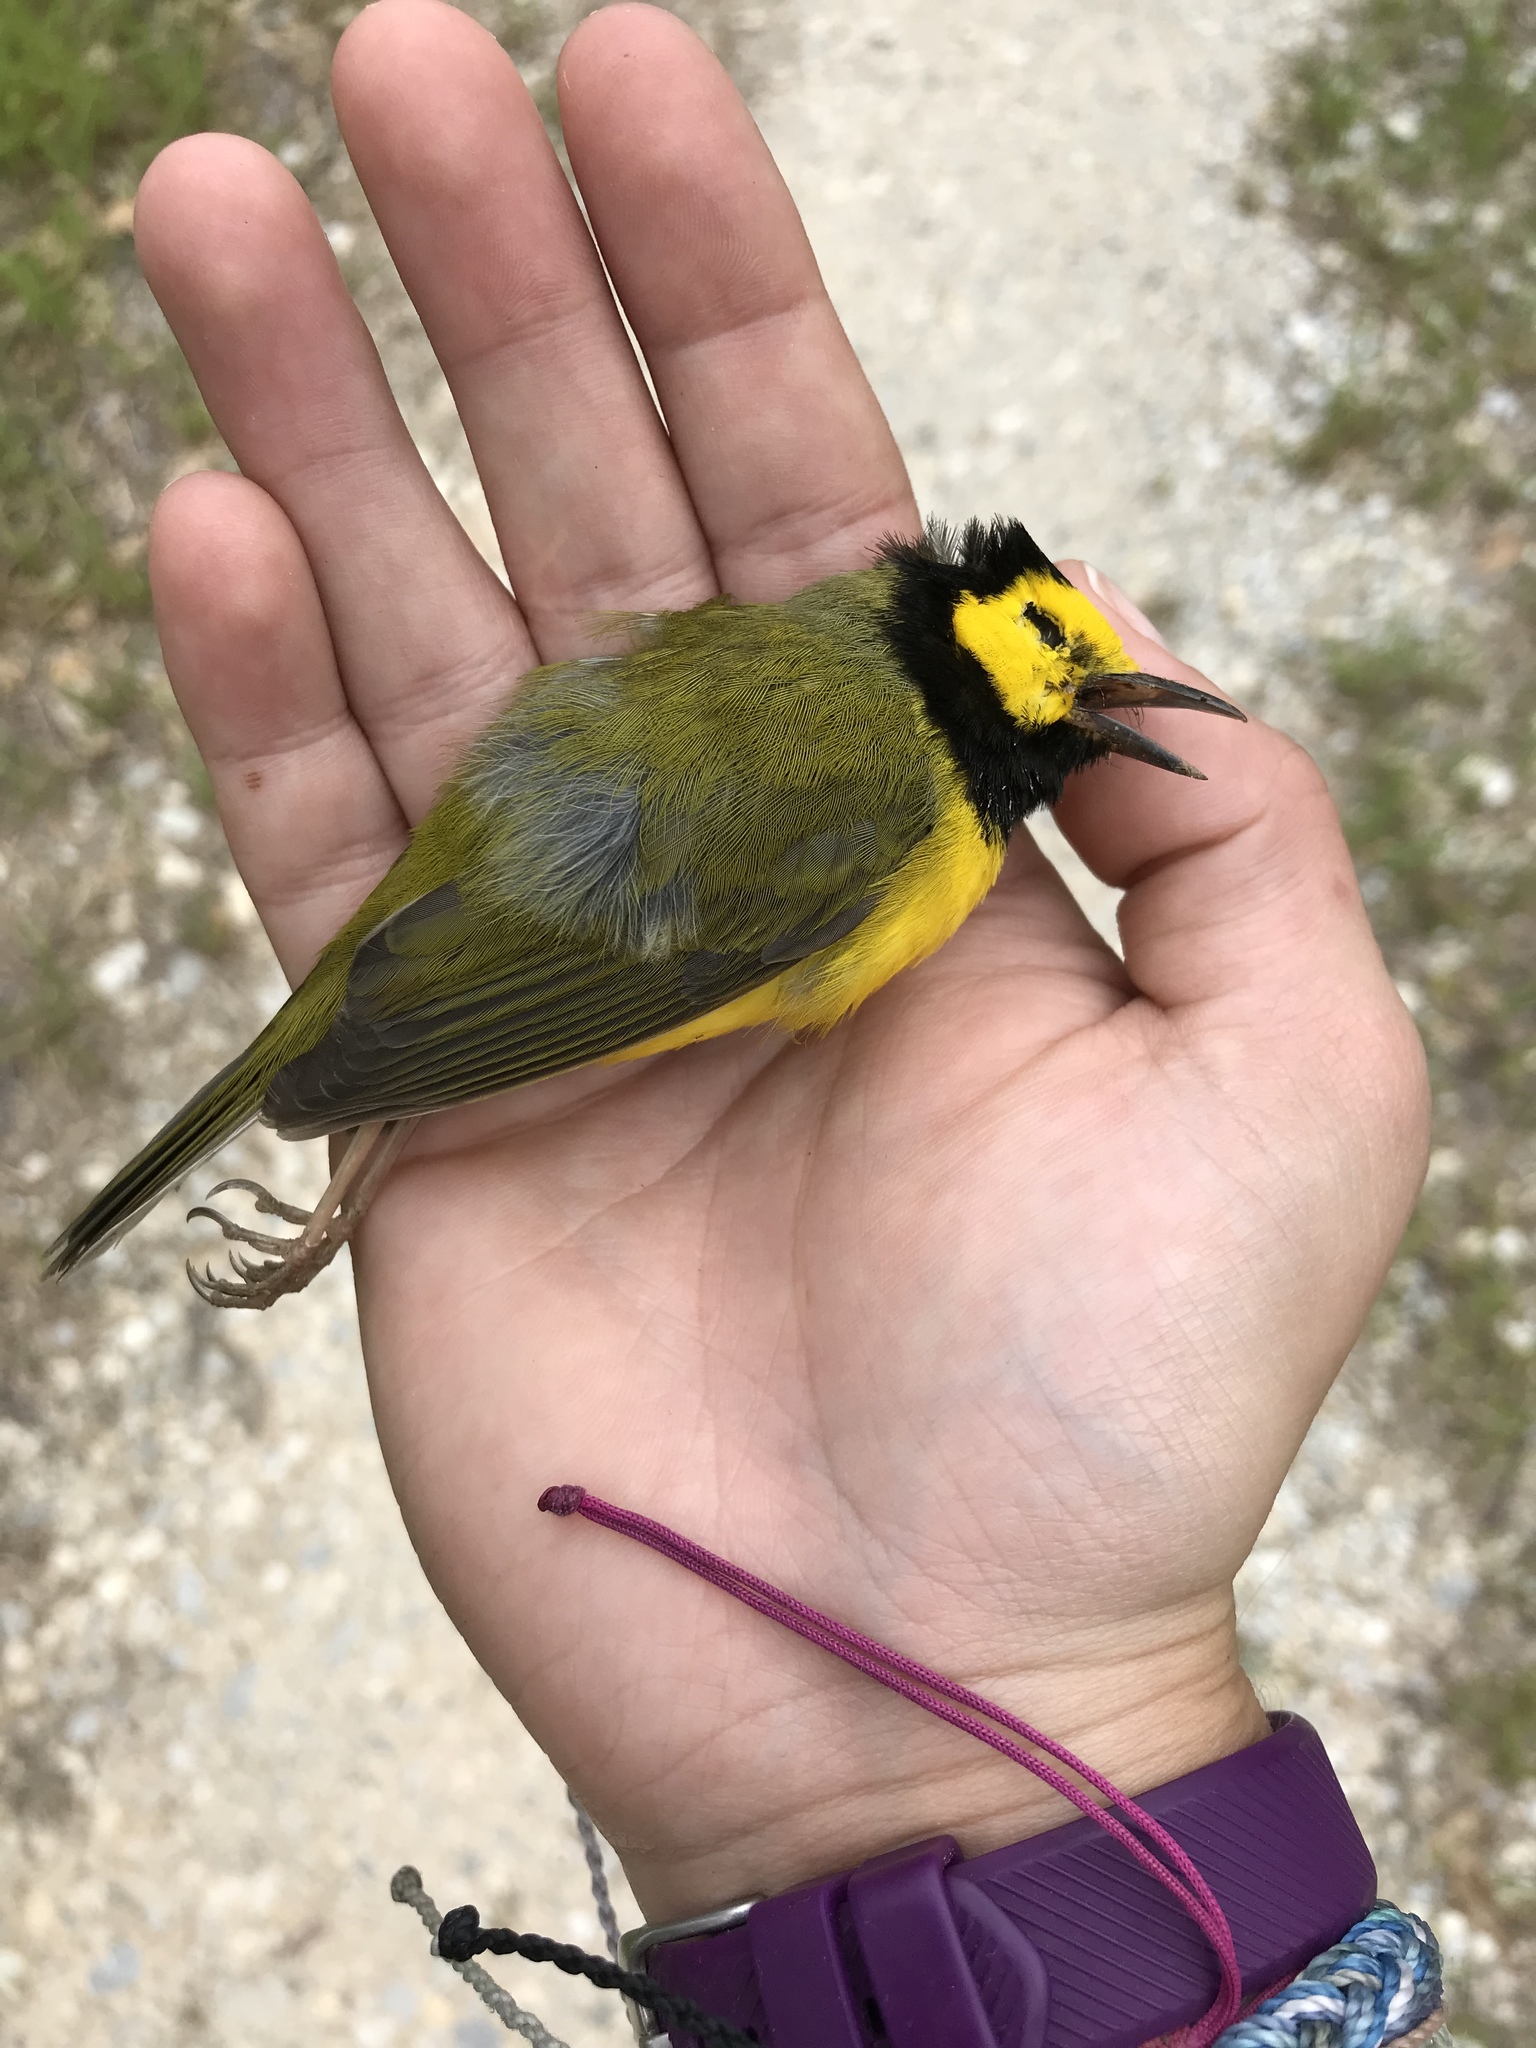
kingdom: Animalia
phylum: Chordata
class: Aves
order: Passeriformes
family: Parulidae
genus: Setophaga
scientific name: Setophaga citrina
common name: Hooded warbler
